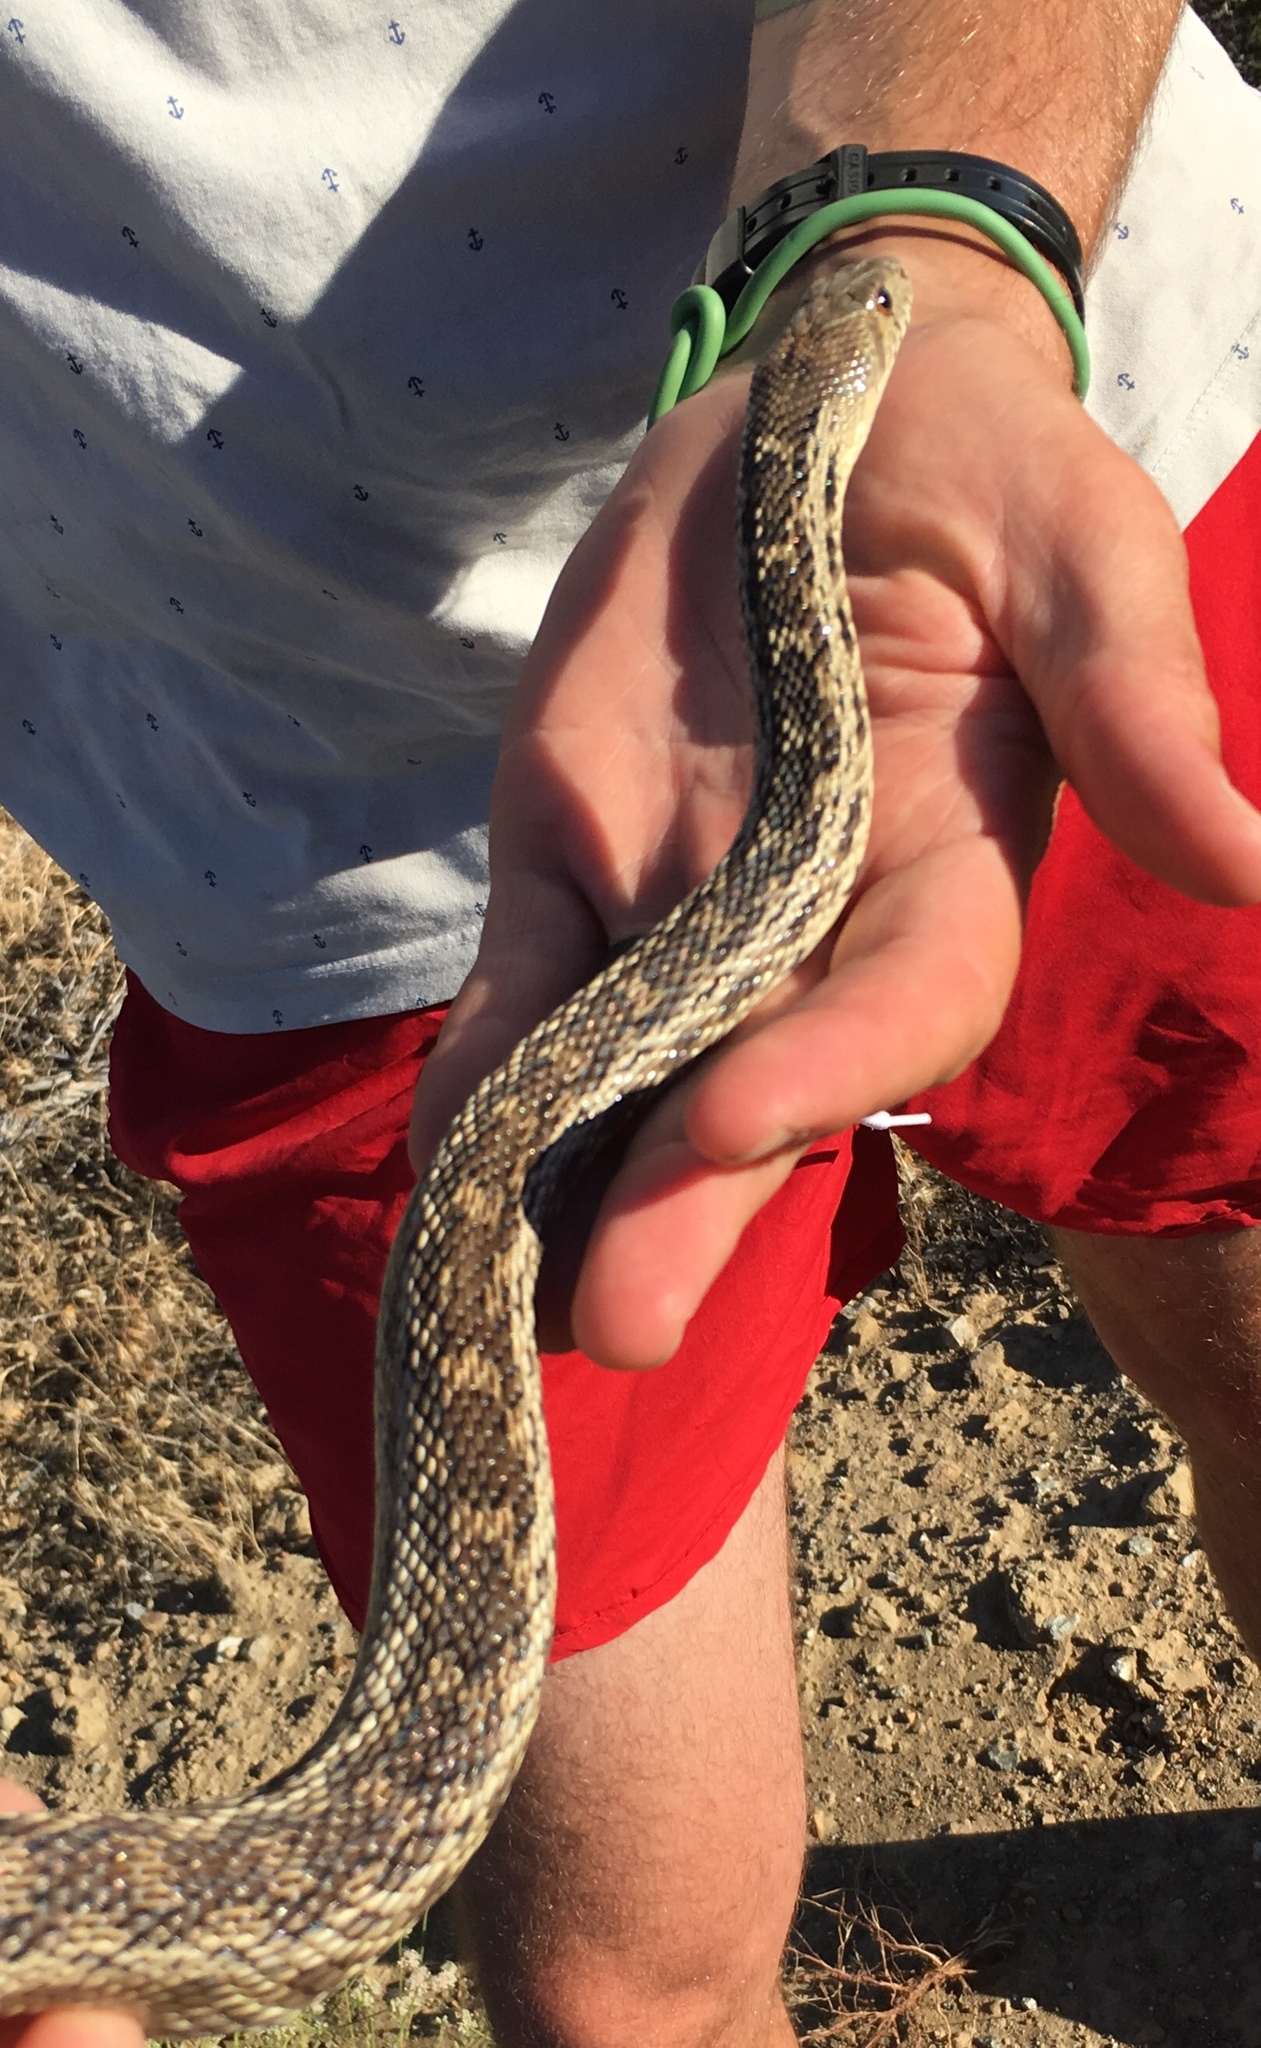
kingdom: Animalia
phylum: Chordata
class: Squamata
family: Colubridae
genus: Pituophis
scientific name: Pituophis catenifer
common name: Gopher snake
